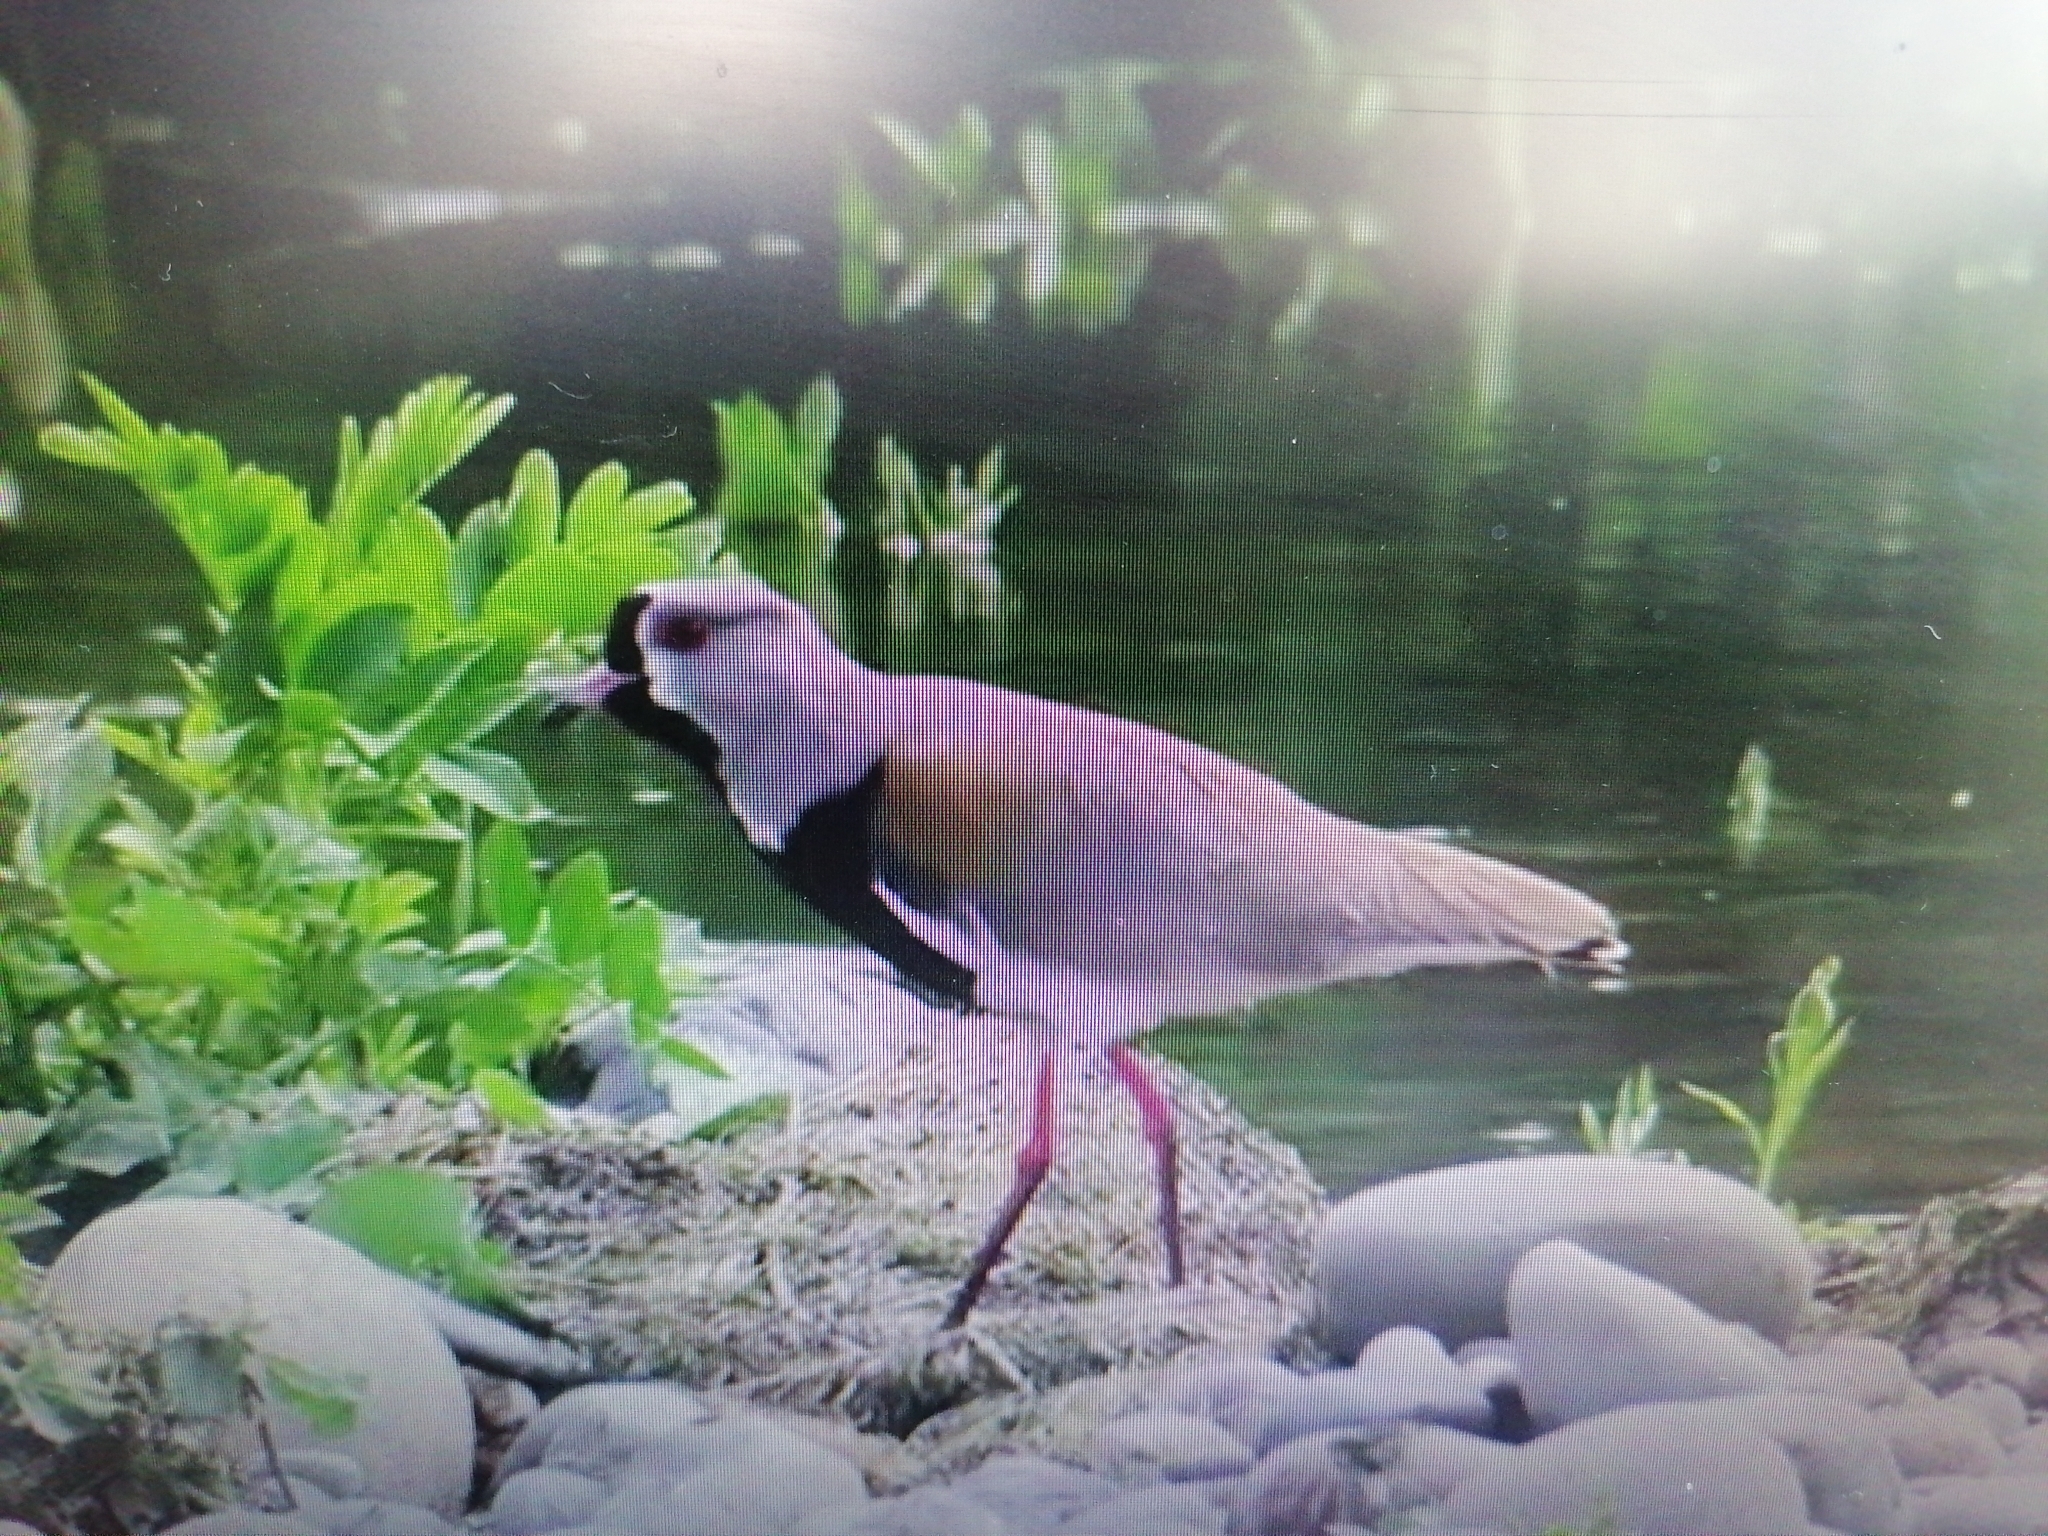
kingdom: Animalia
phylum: Chordata
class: Aves
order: Charadriiformes
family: Charadriidae
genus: Vanellus
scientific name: Vanellus chilensis
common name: Southern lapwing
